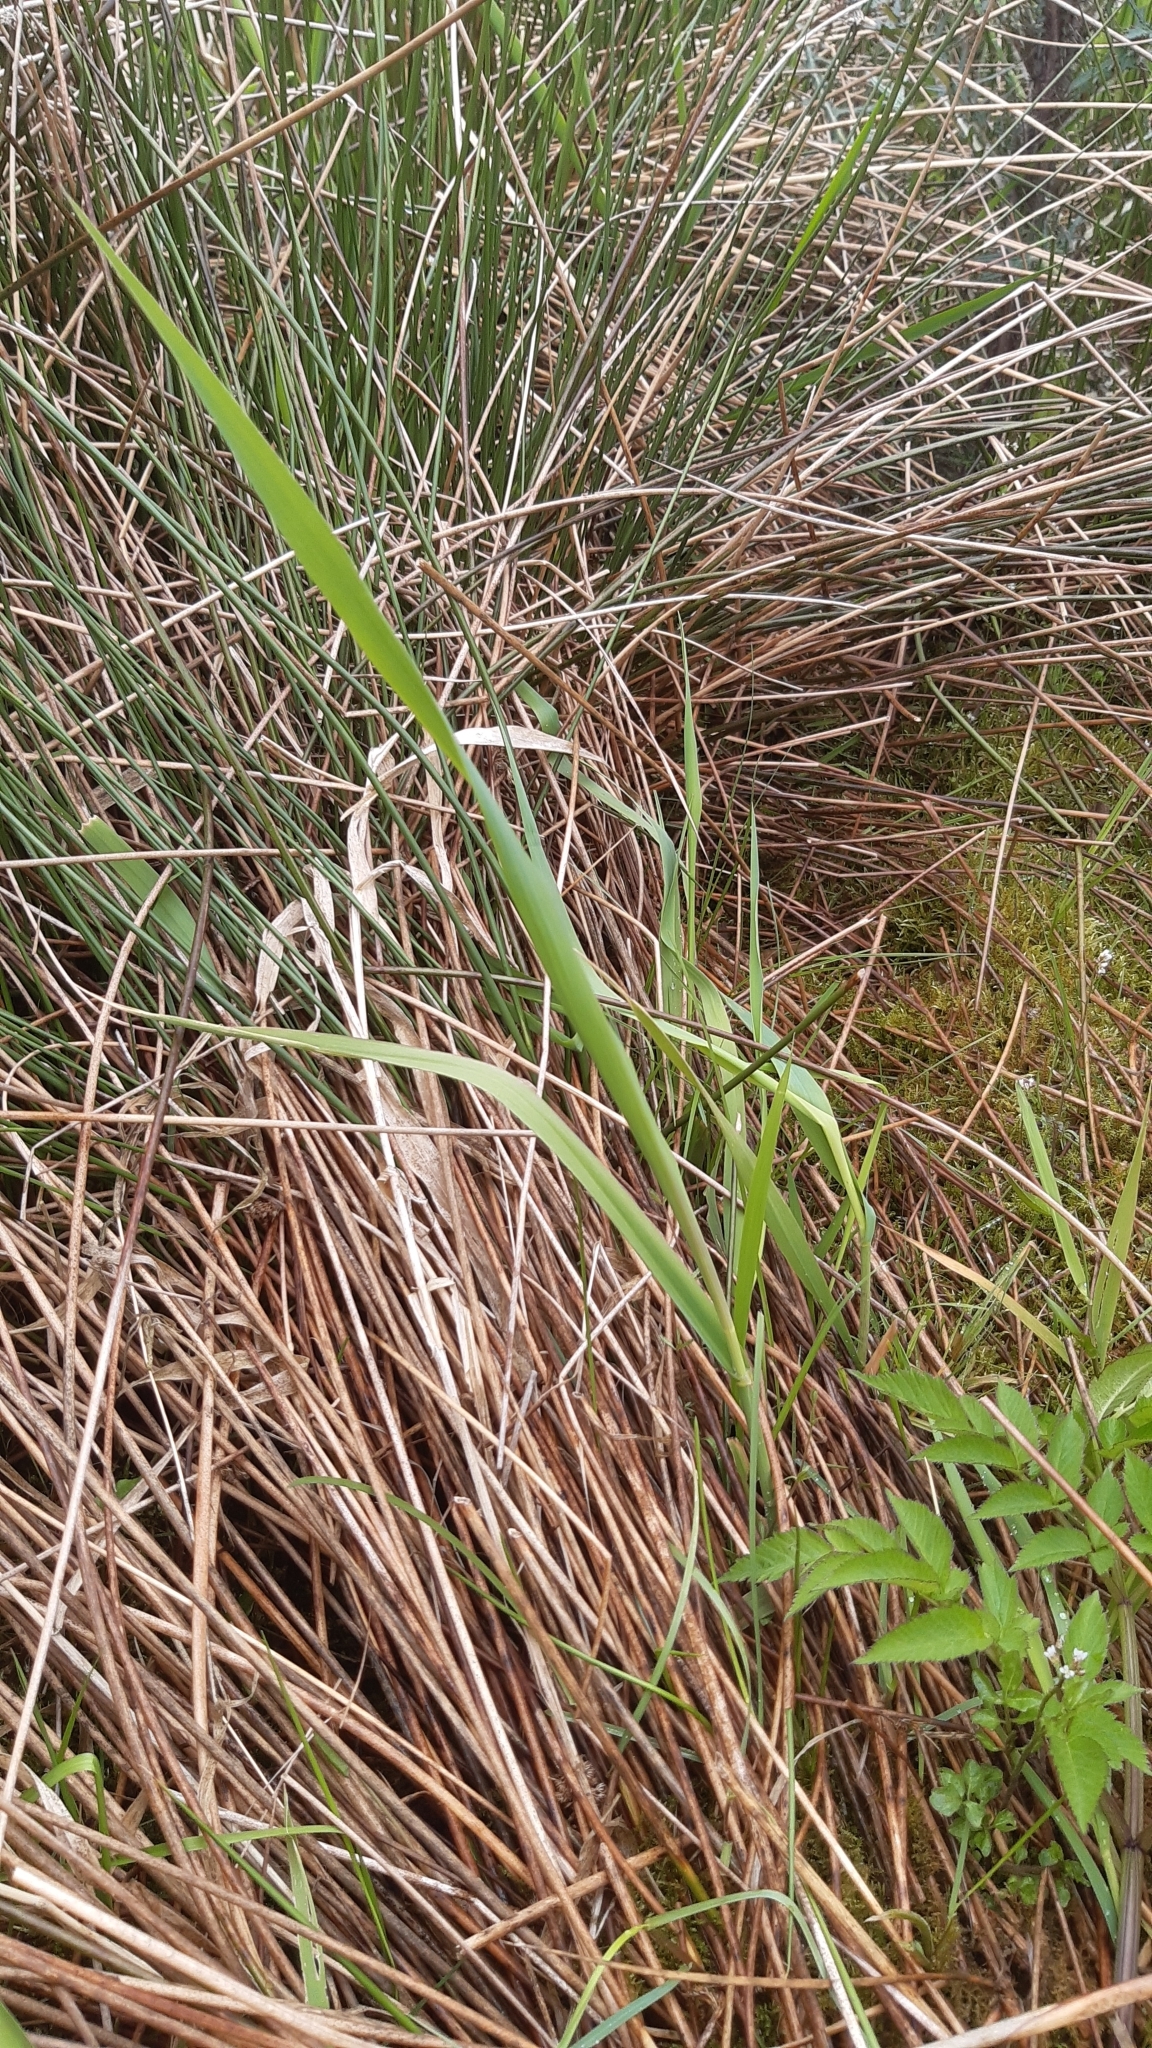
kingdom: Plantae
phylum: Tracheophyta
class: Liliopsida
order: Poales
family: Poaceae
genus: Phalaris
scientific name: Phalaris arundinacea
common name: Reed canary-grass
